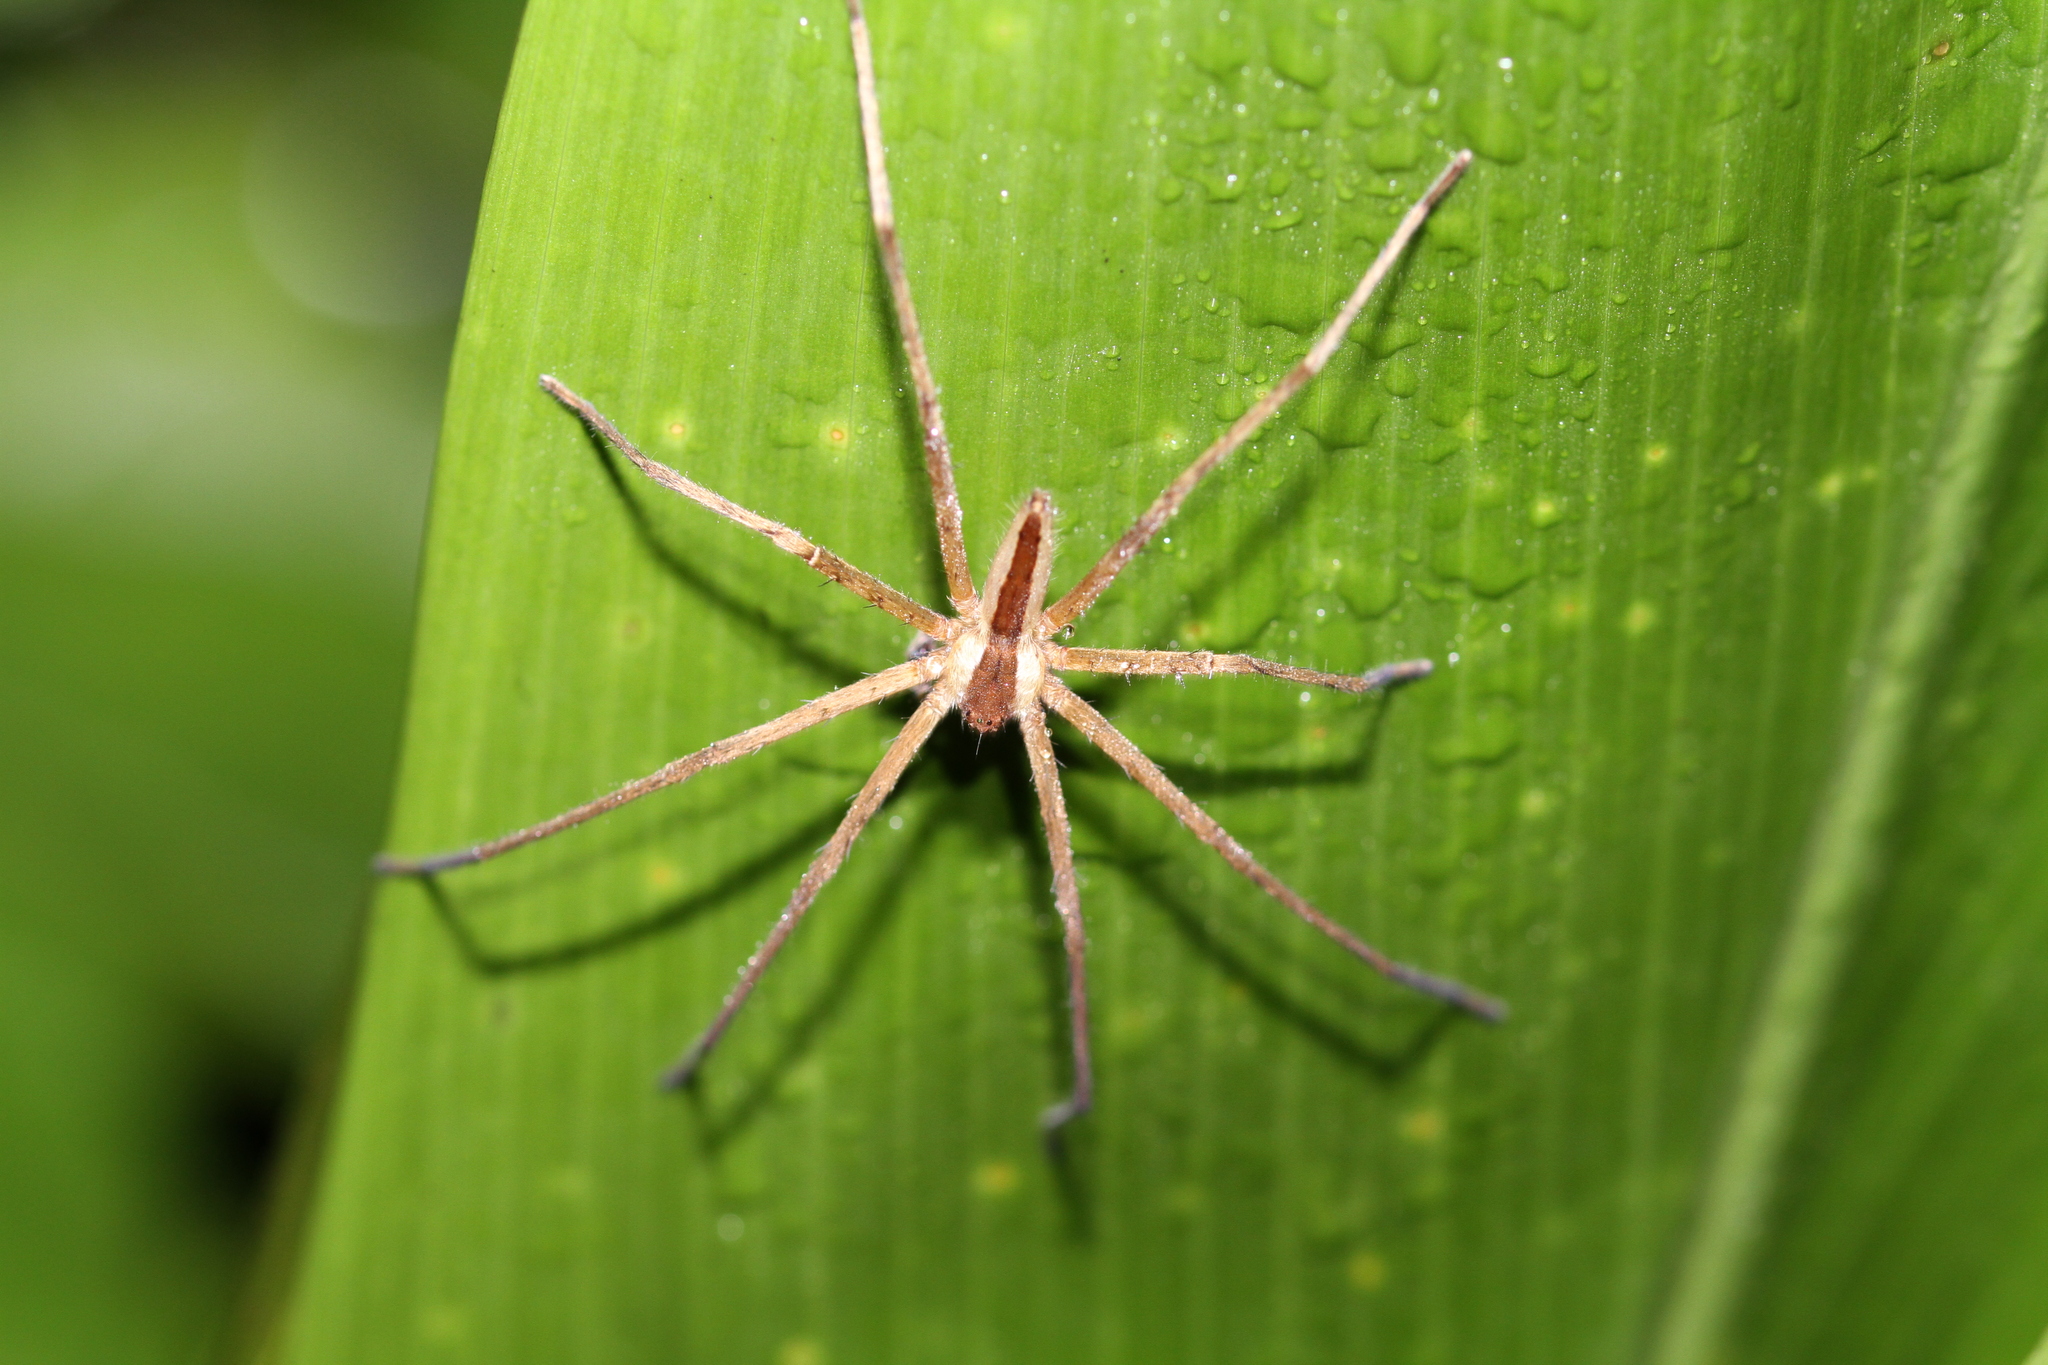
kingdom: Animalia
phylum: Arthropoda
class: Arachnida
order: Araneae
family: Sparassidae
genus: Heteropoda
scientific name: Heteropoda ocyalina
